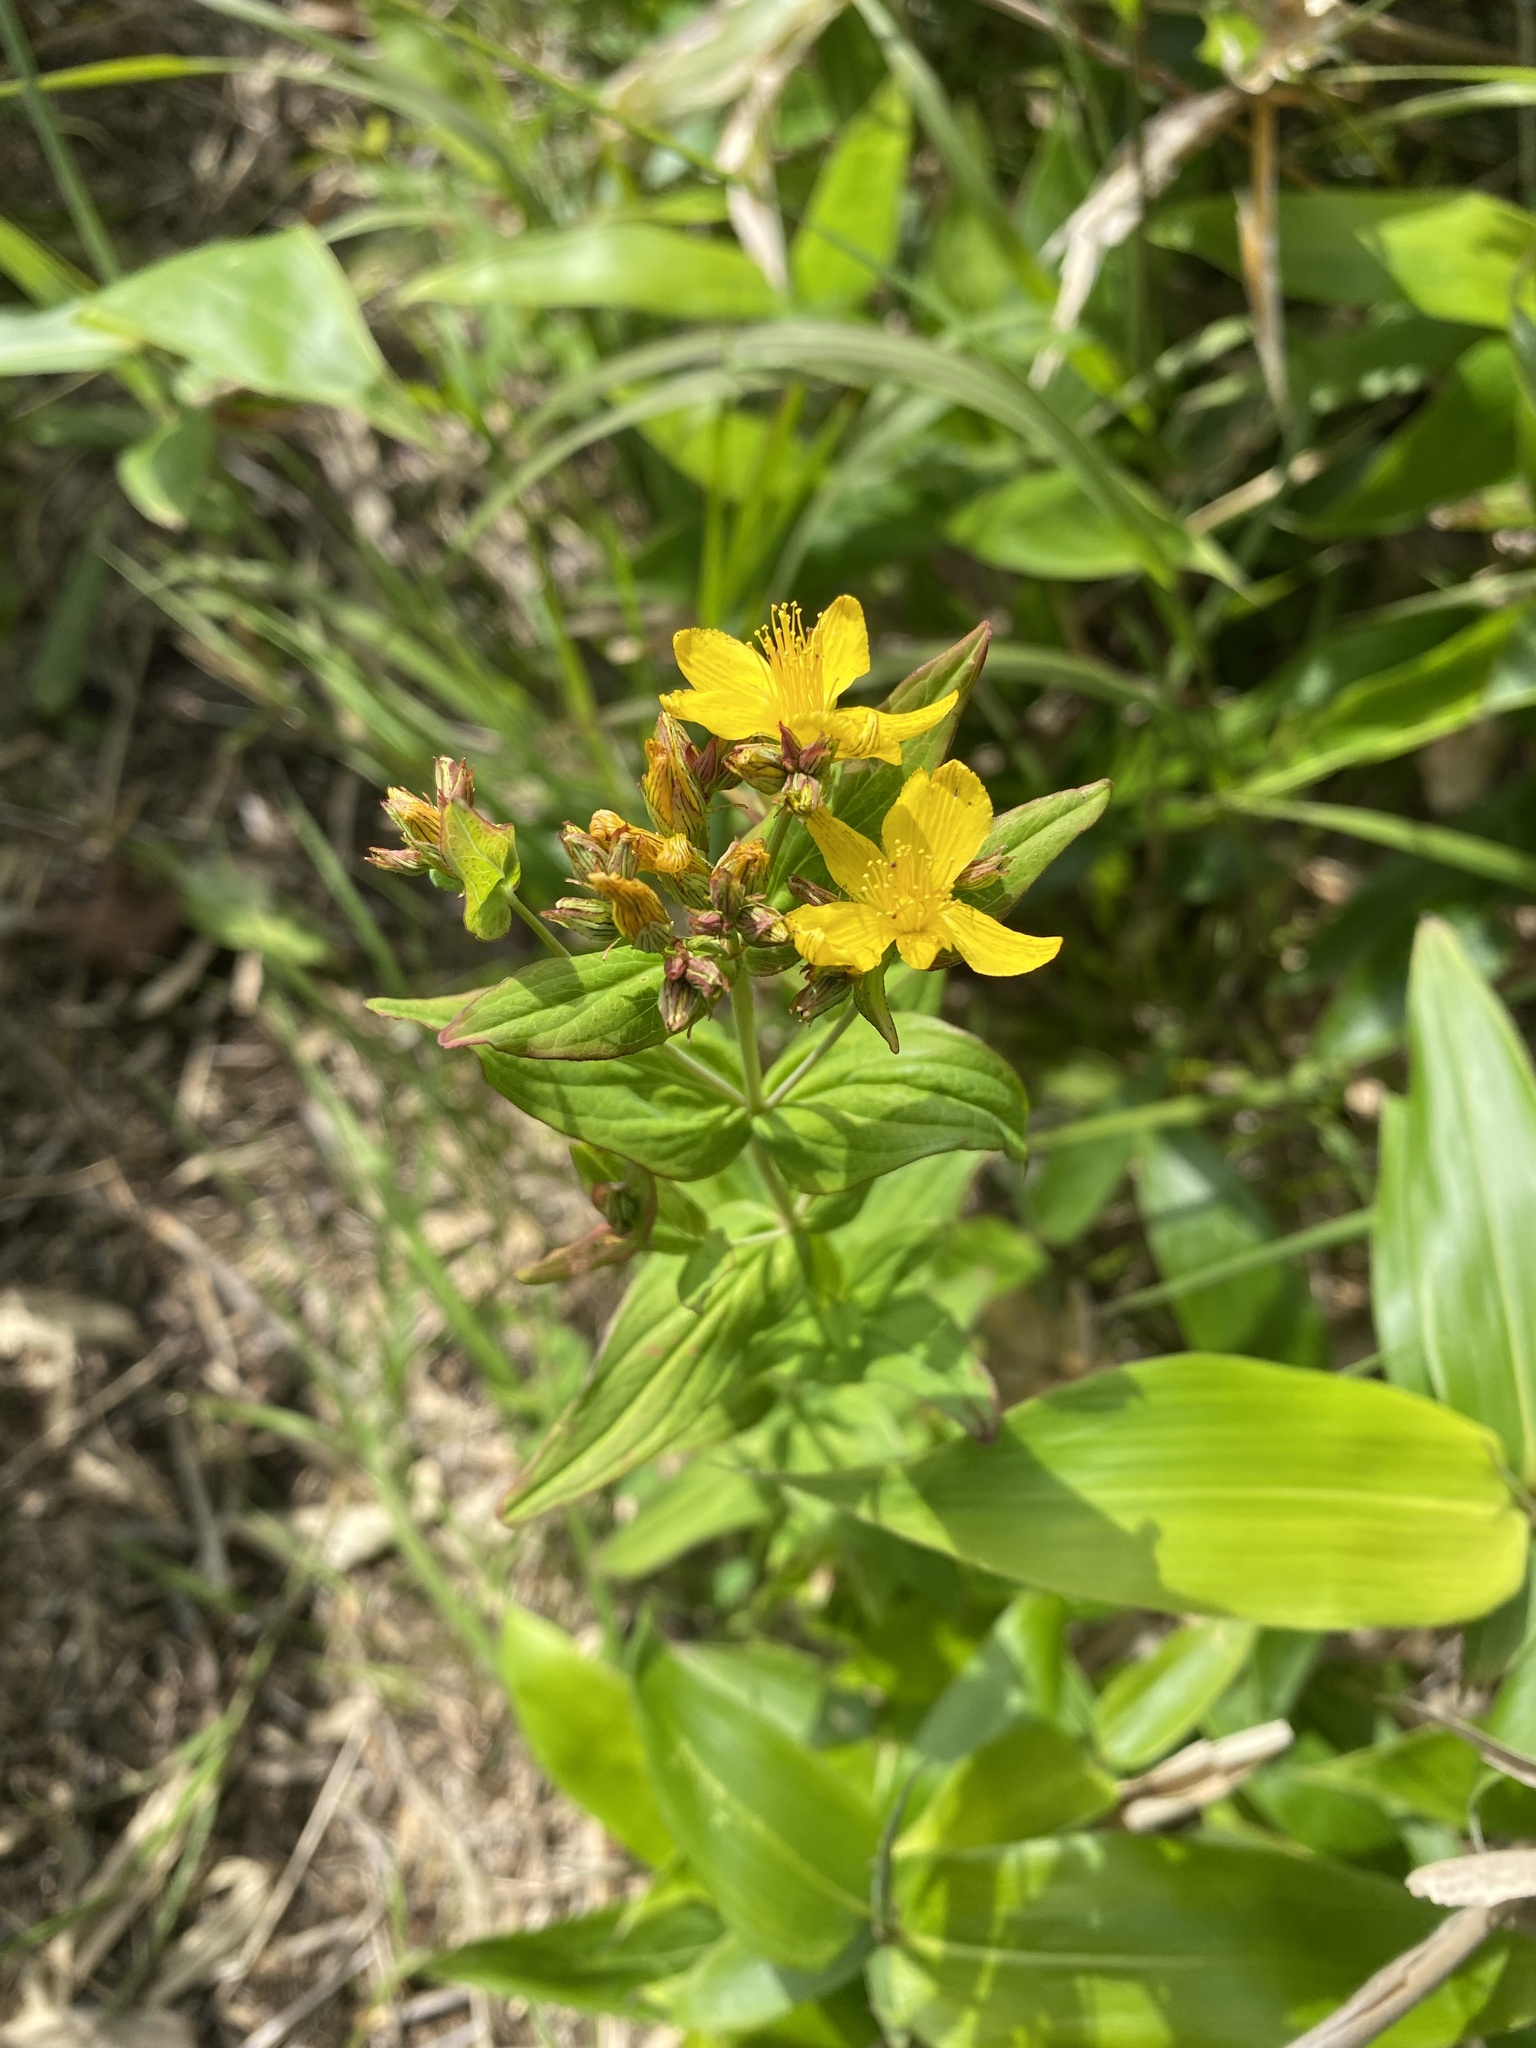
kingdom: Plantae
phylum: Tracheophyta
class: Magnoliopsida
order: Malpighiales
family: Hypericaceae
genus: Hypericum
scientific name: Hypericum kamtschaticum
